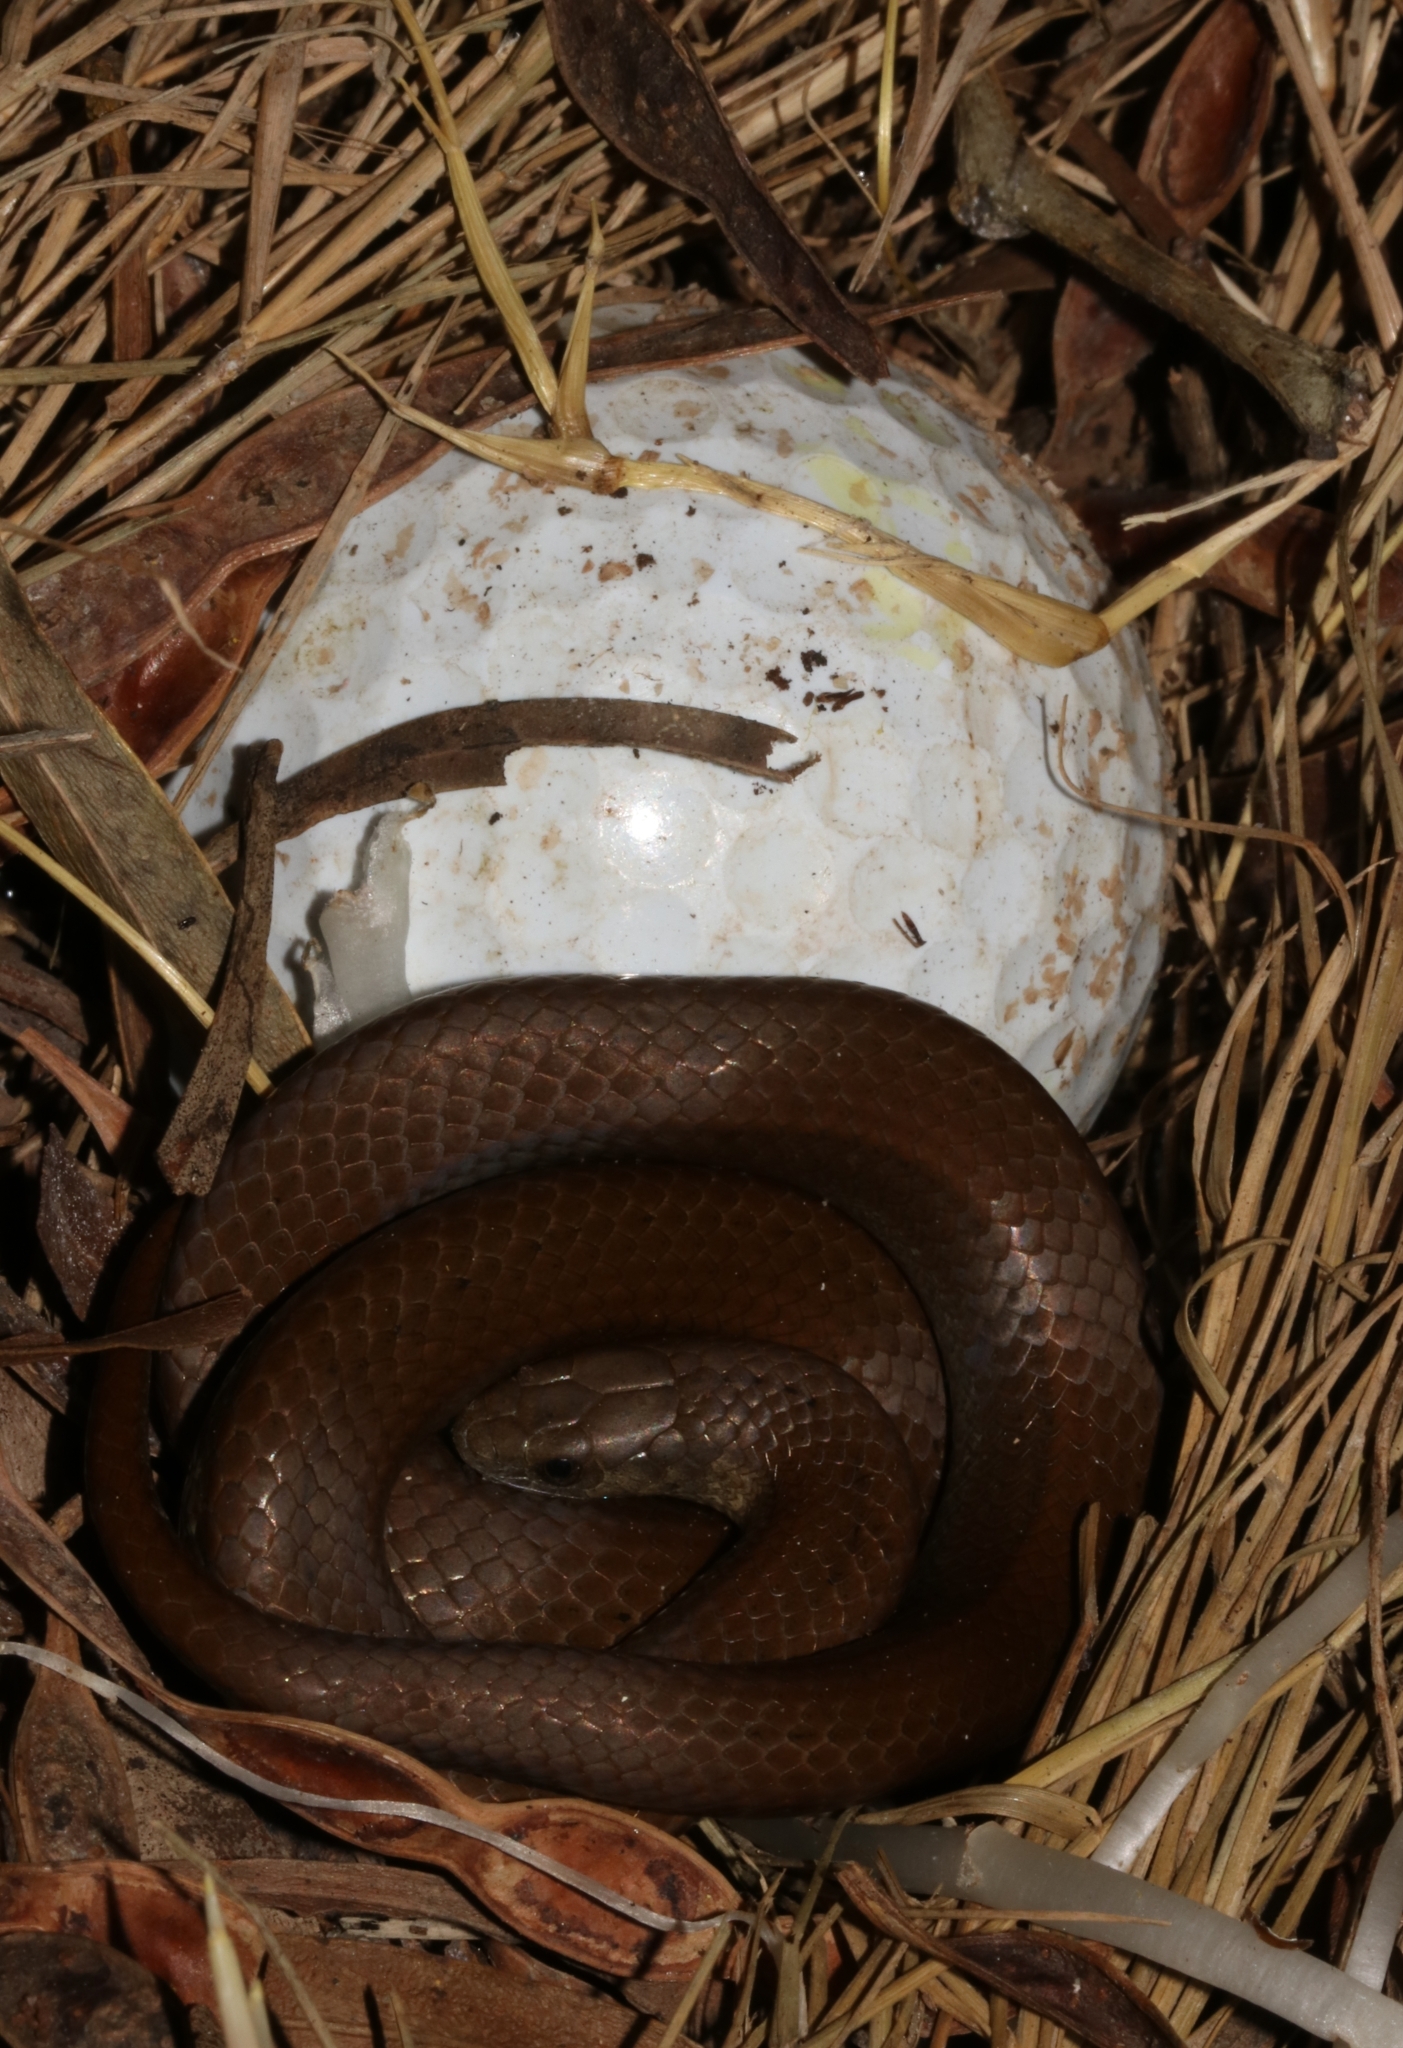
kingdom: Animalia
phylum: Chordata
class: Squamata
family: Pseudoxyrhophiidae
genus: Duberria
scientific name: Duberria lutrix
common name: Common slug eater
